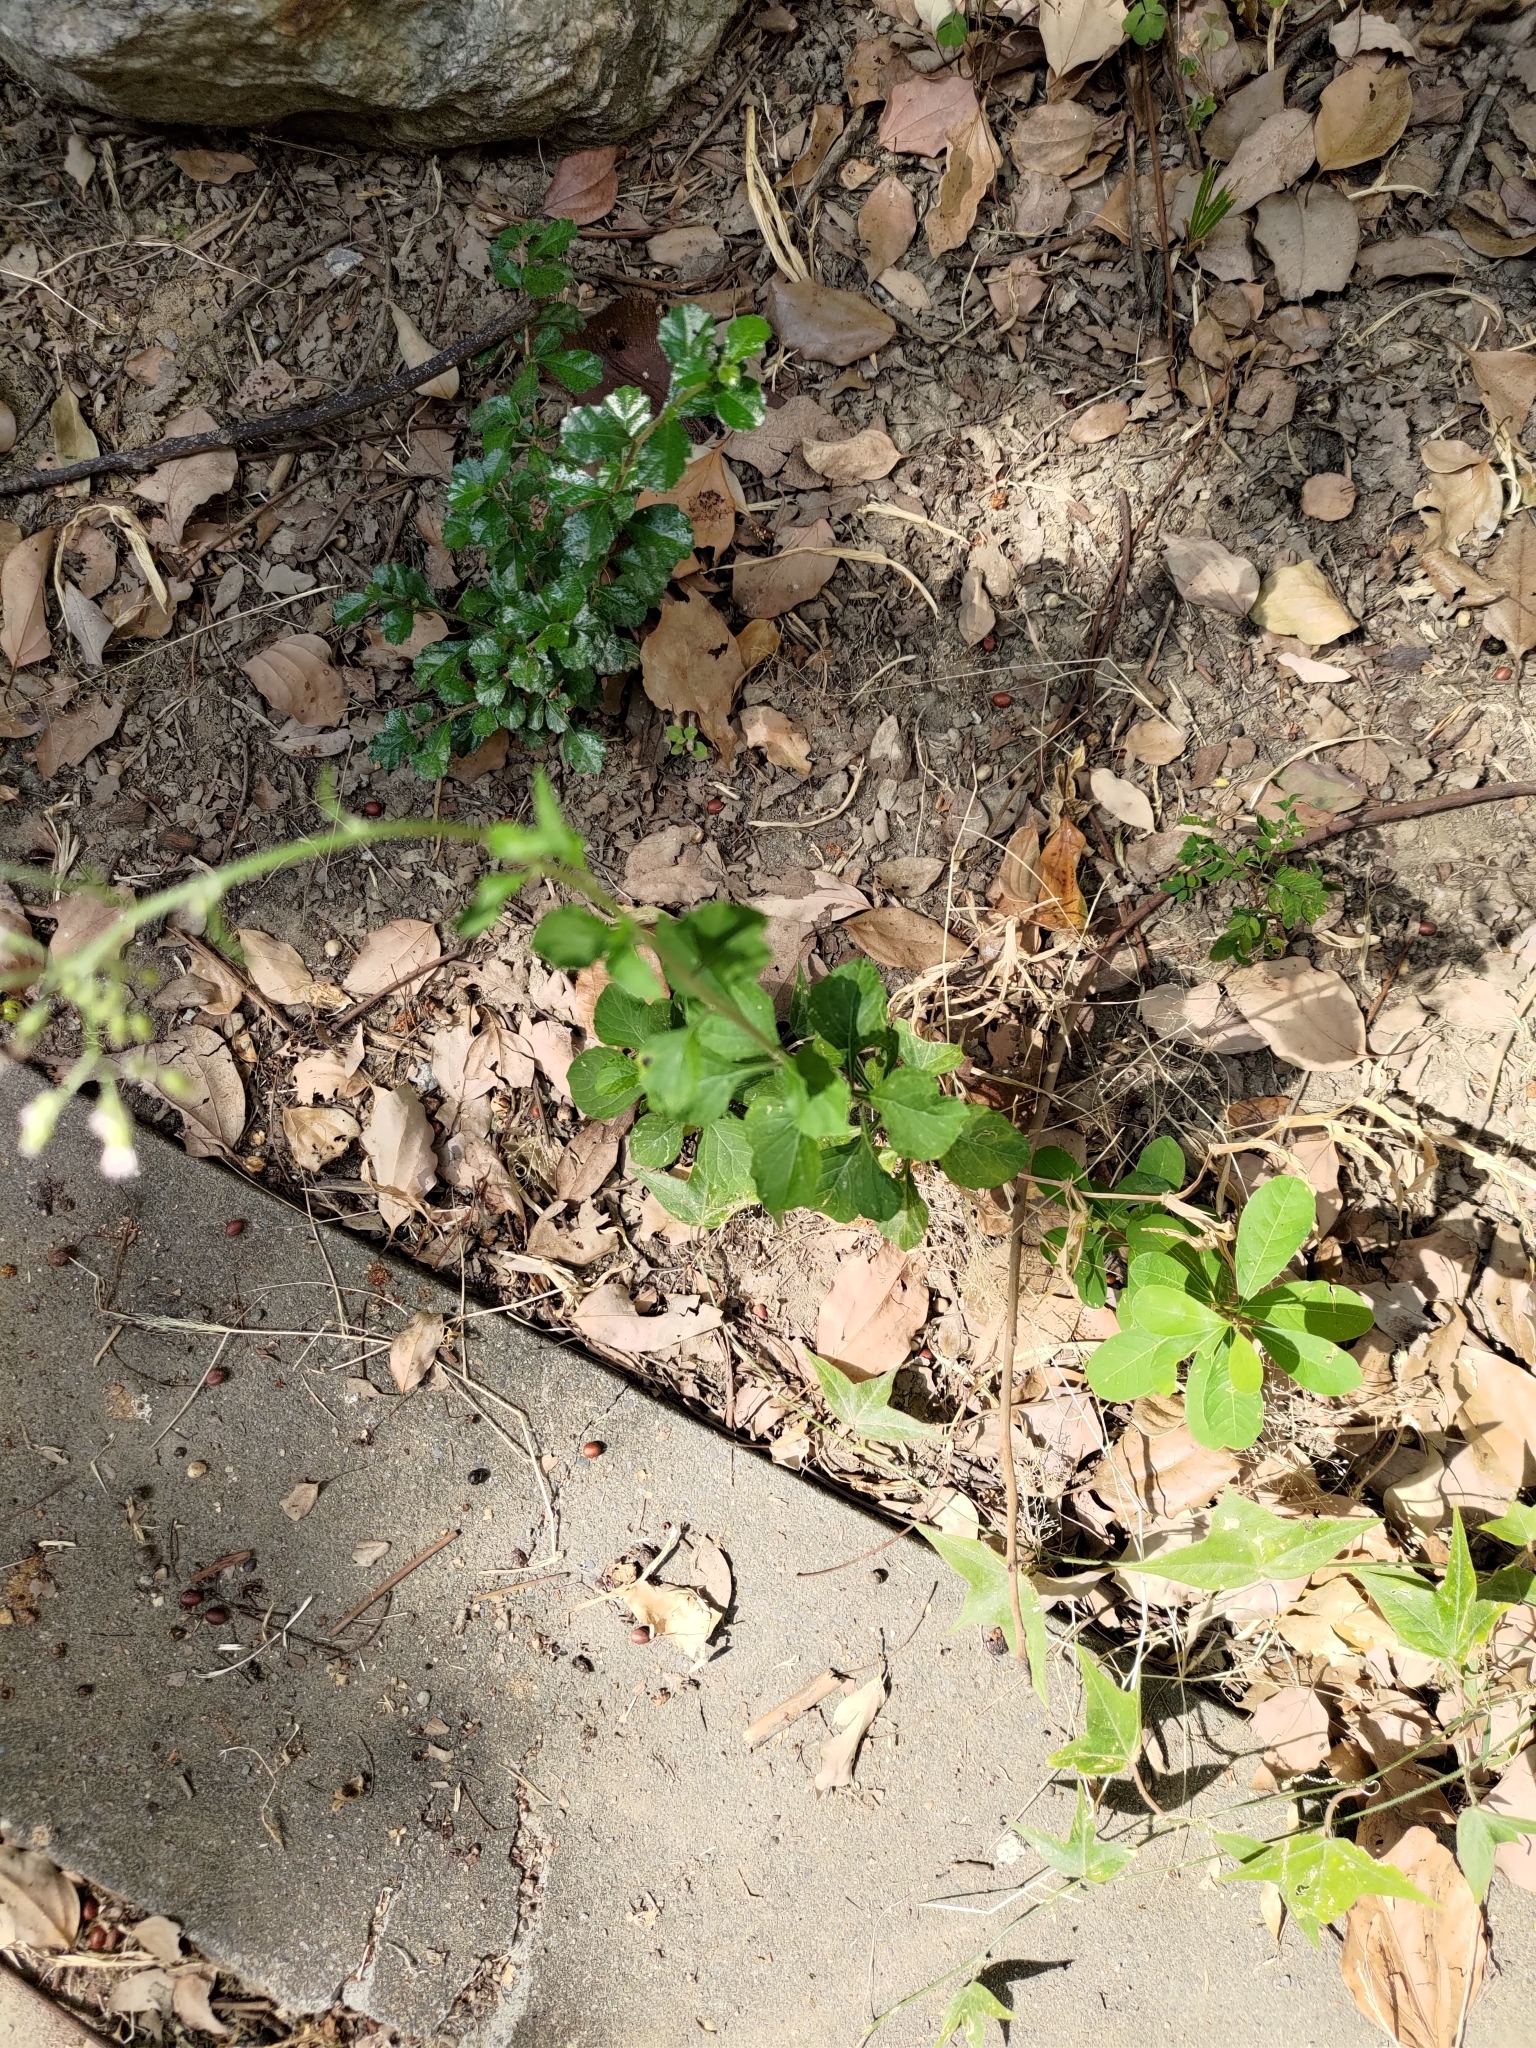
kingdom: Plantae
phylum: Tracheophyta
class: Magnoliopsida
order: Asterales
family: Asteraceae
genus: Cyanthillium
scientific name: Cyanthillium cinereum
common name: Little ironweed
